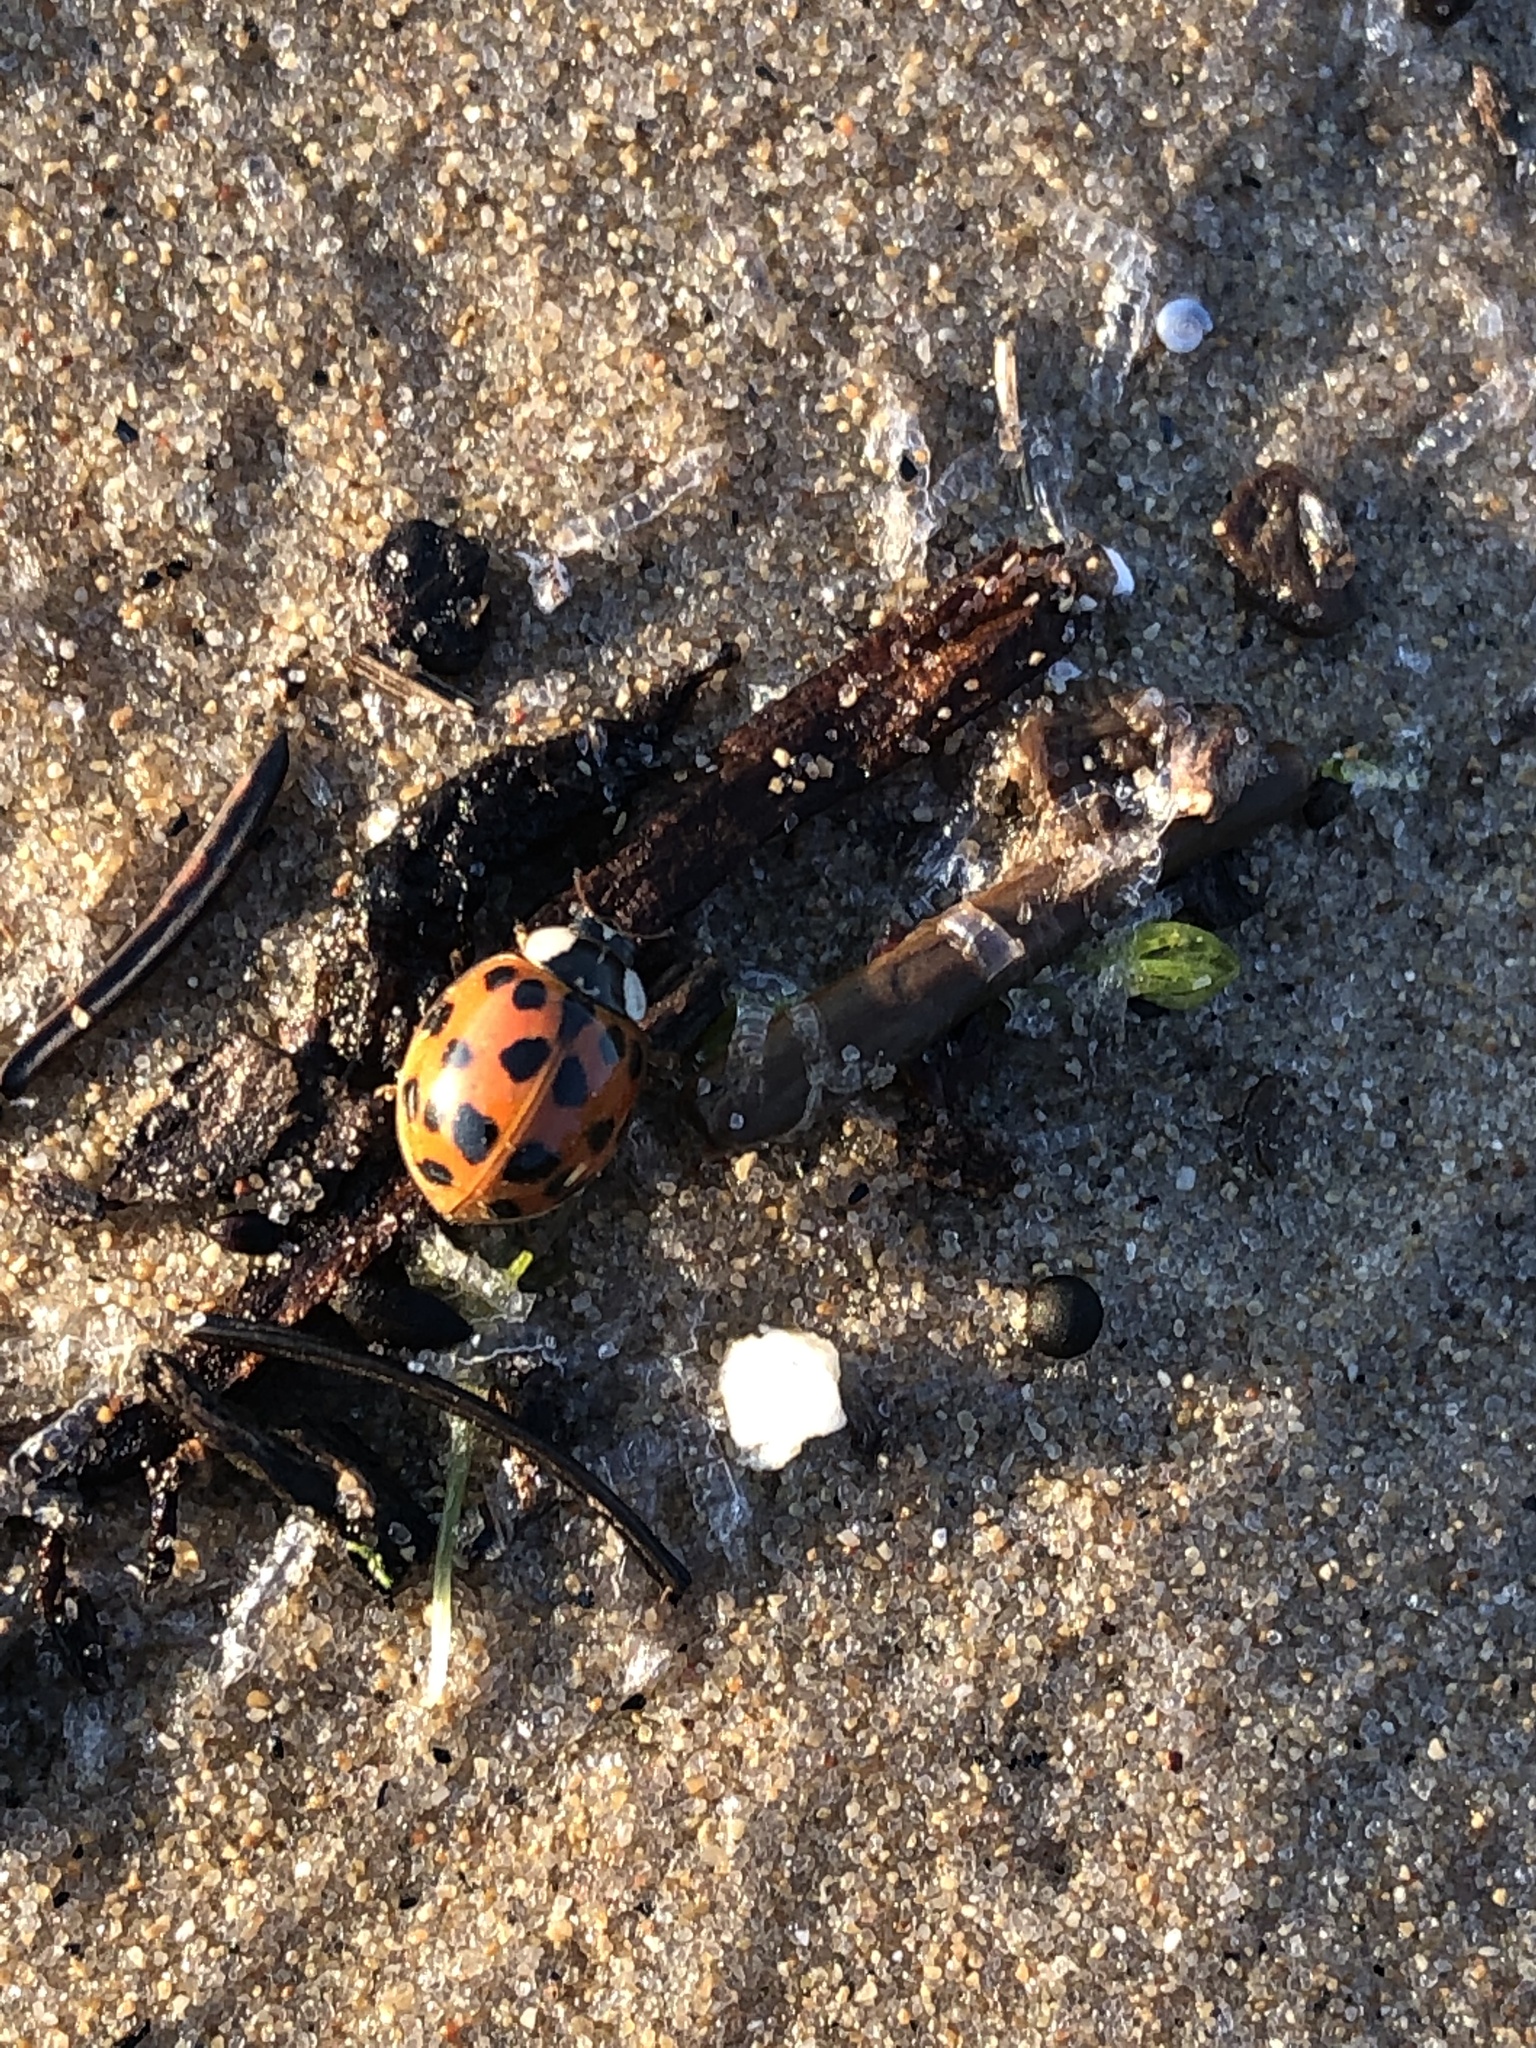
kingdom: Animalia
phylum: Arthropoda
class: Insecta
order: Coleoptera
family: Coccinellidae
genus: Harmonia
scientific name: Harmonia axyridis
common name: Harlequin ladybird
